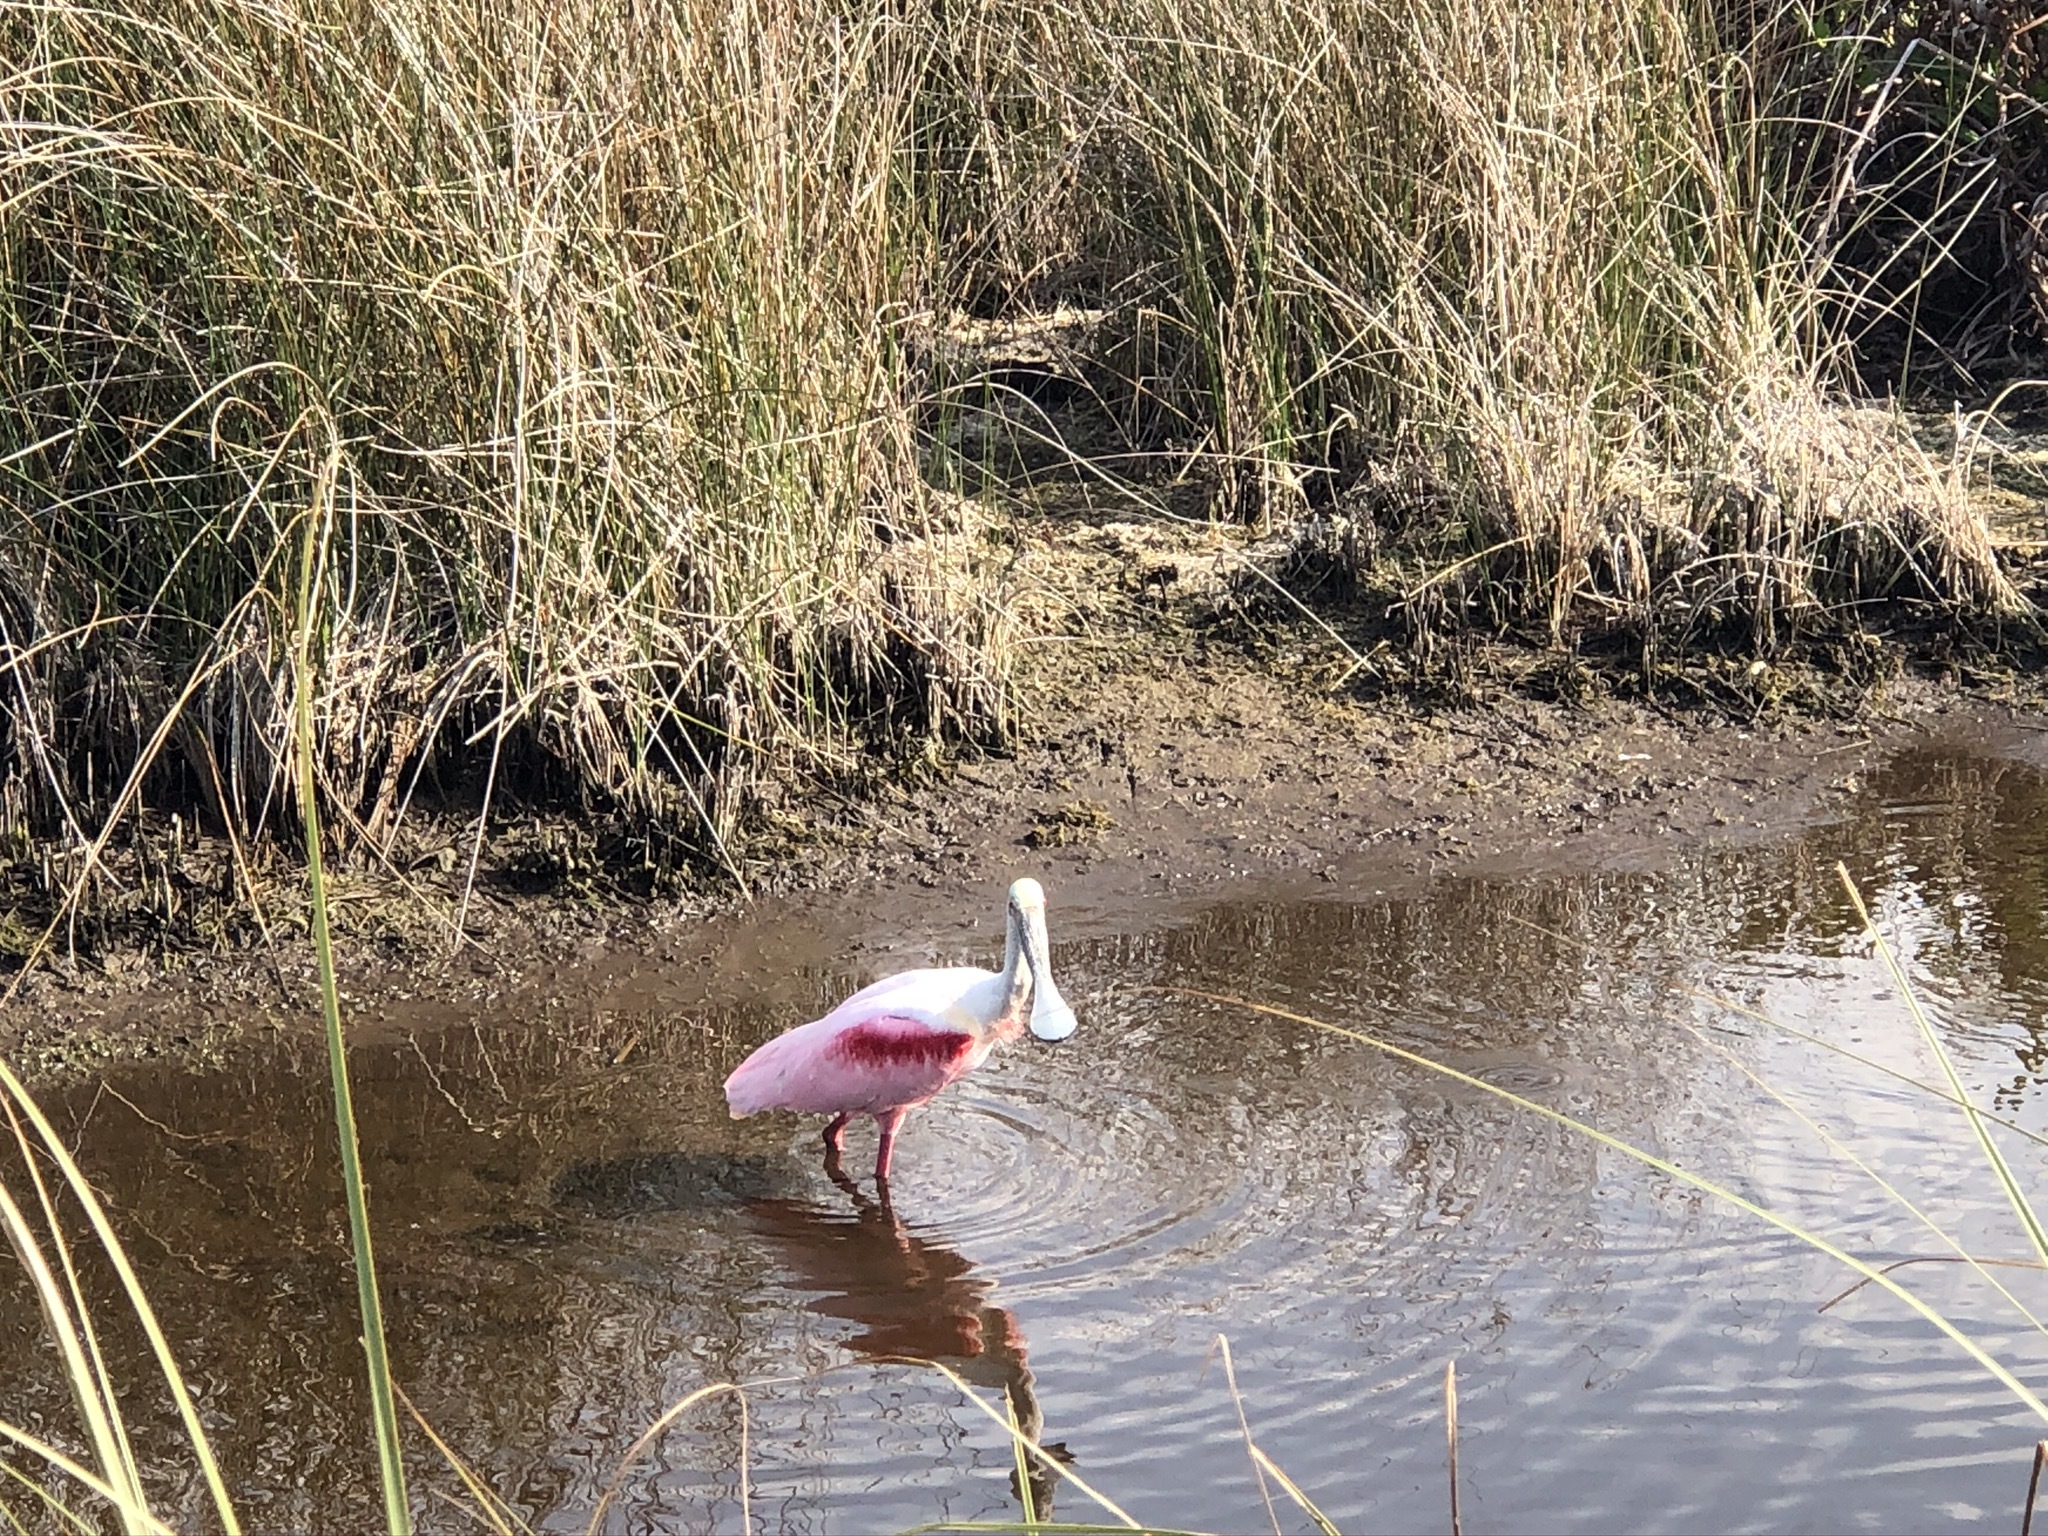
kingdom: Animalia
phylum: Chordata
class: Aves
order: Pelecaniformes
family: Threskiornithidae
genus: Platalea
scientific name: Platalea ajaja
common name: Roseate spoonbill
